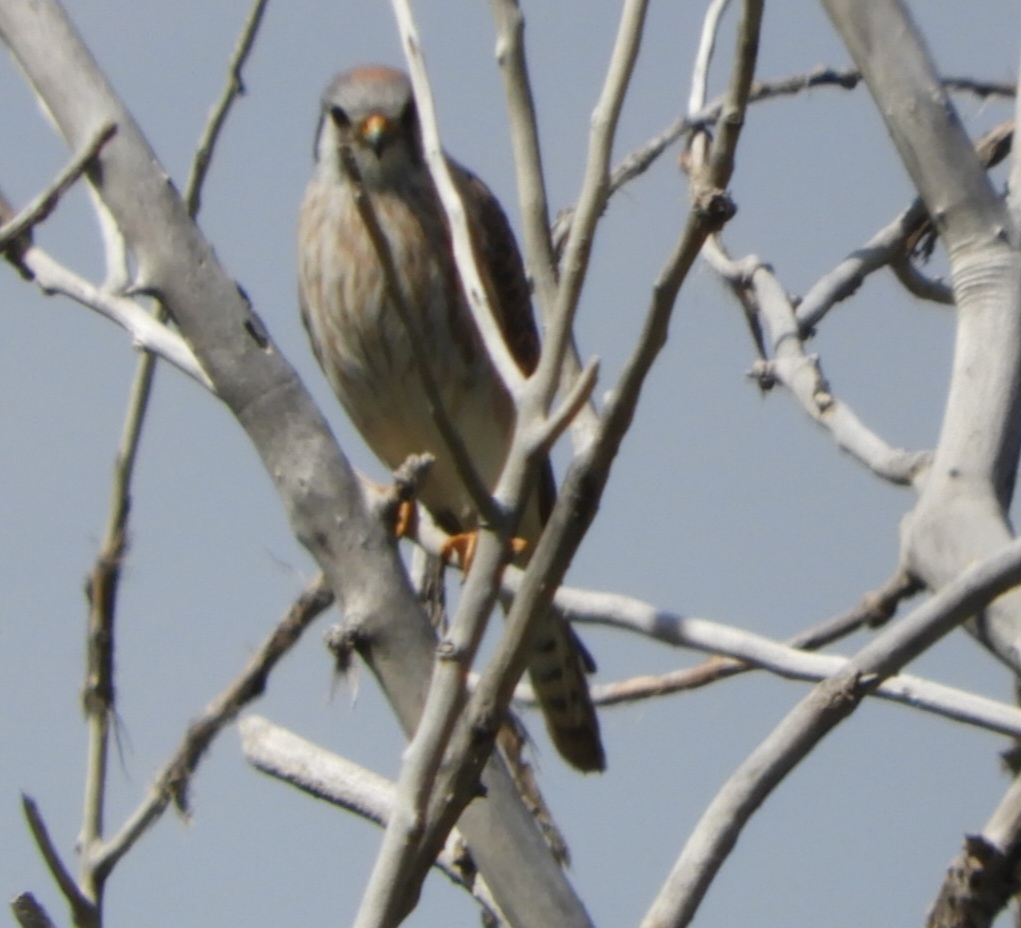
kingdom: Animalia
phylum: Chordata
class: Aves
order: Falconiformes
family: Falconidae
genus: Falco
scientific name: Falco sparverius
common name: American kestrel
